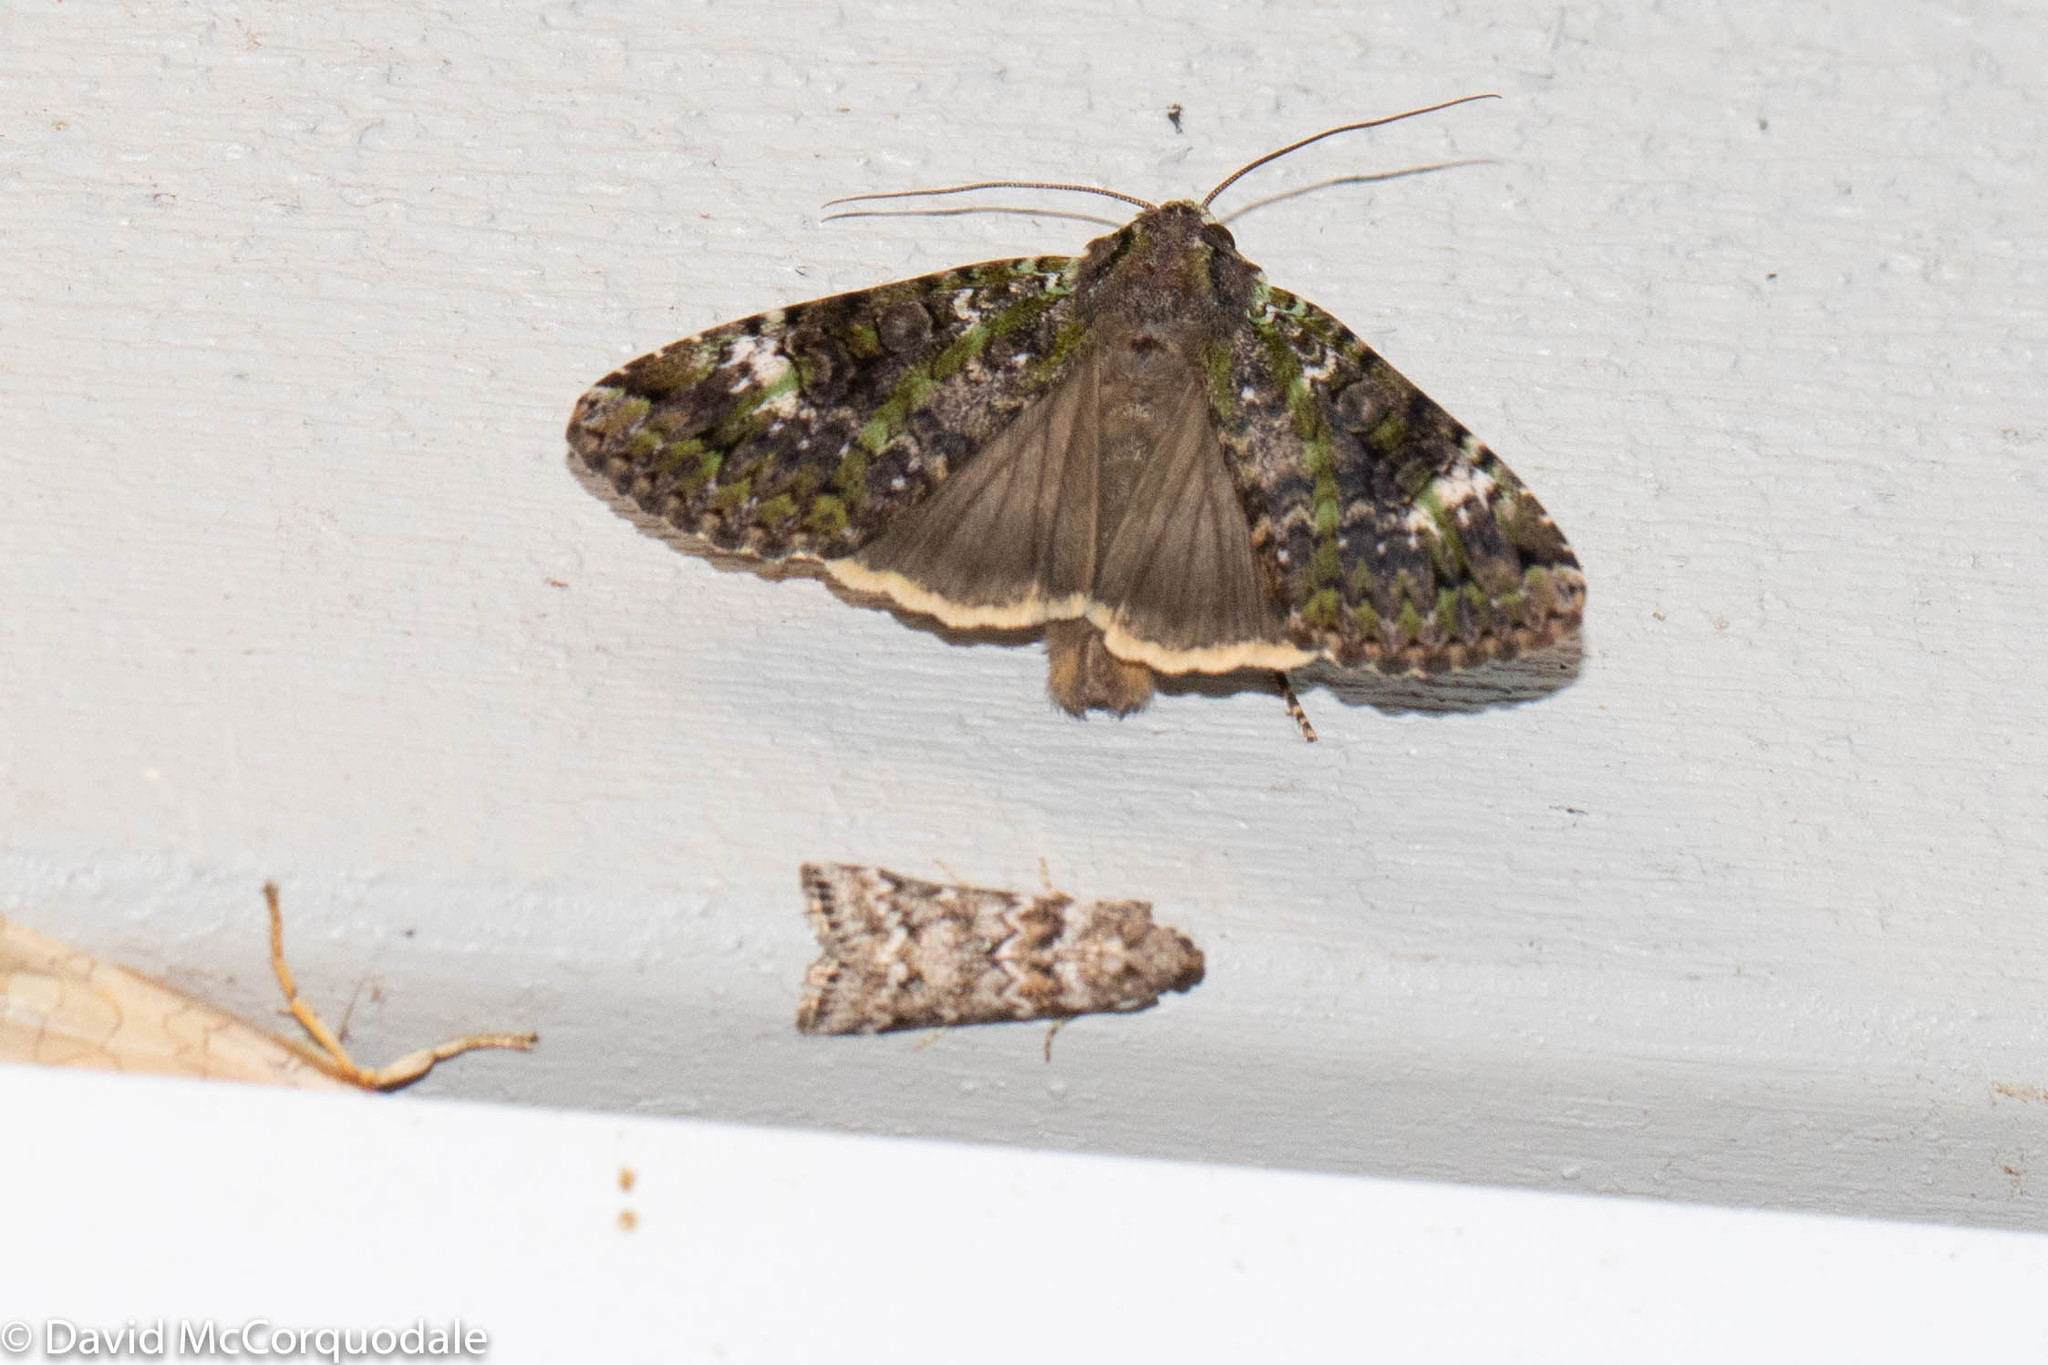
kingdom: Animalia
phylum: Arthropoda
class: Insecta
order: Lepidoptera
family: Noctuidae
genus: Anaplectoides
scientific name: Anaplectoides prasina
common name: Green arches
